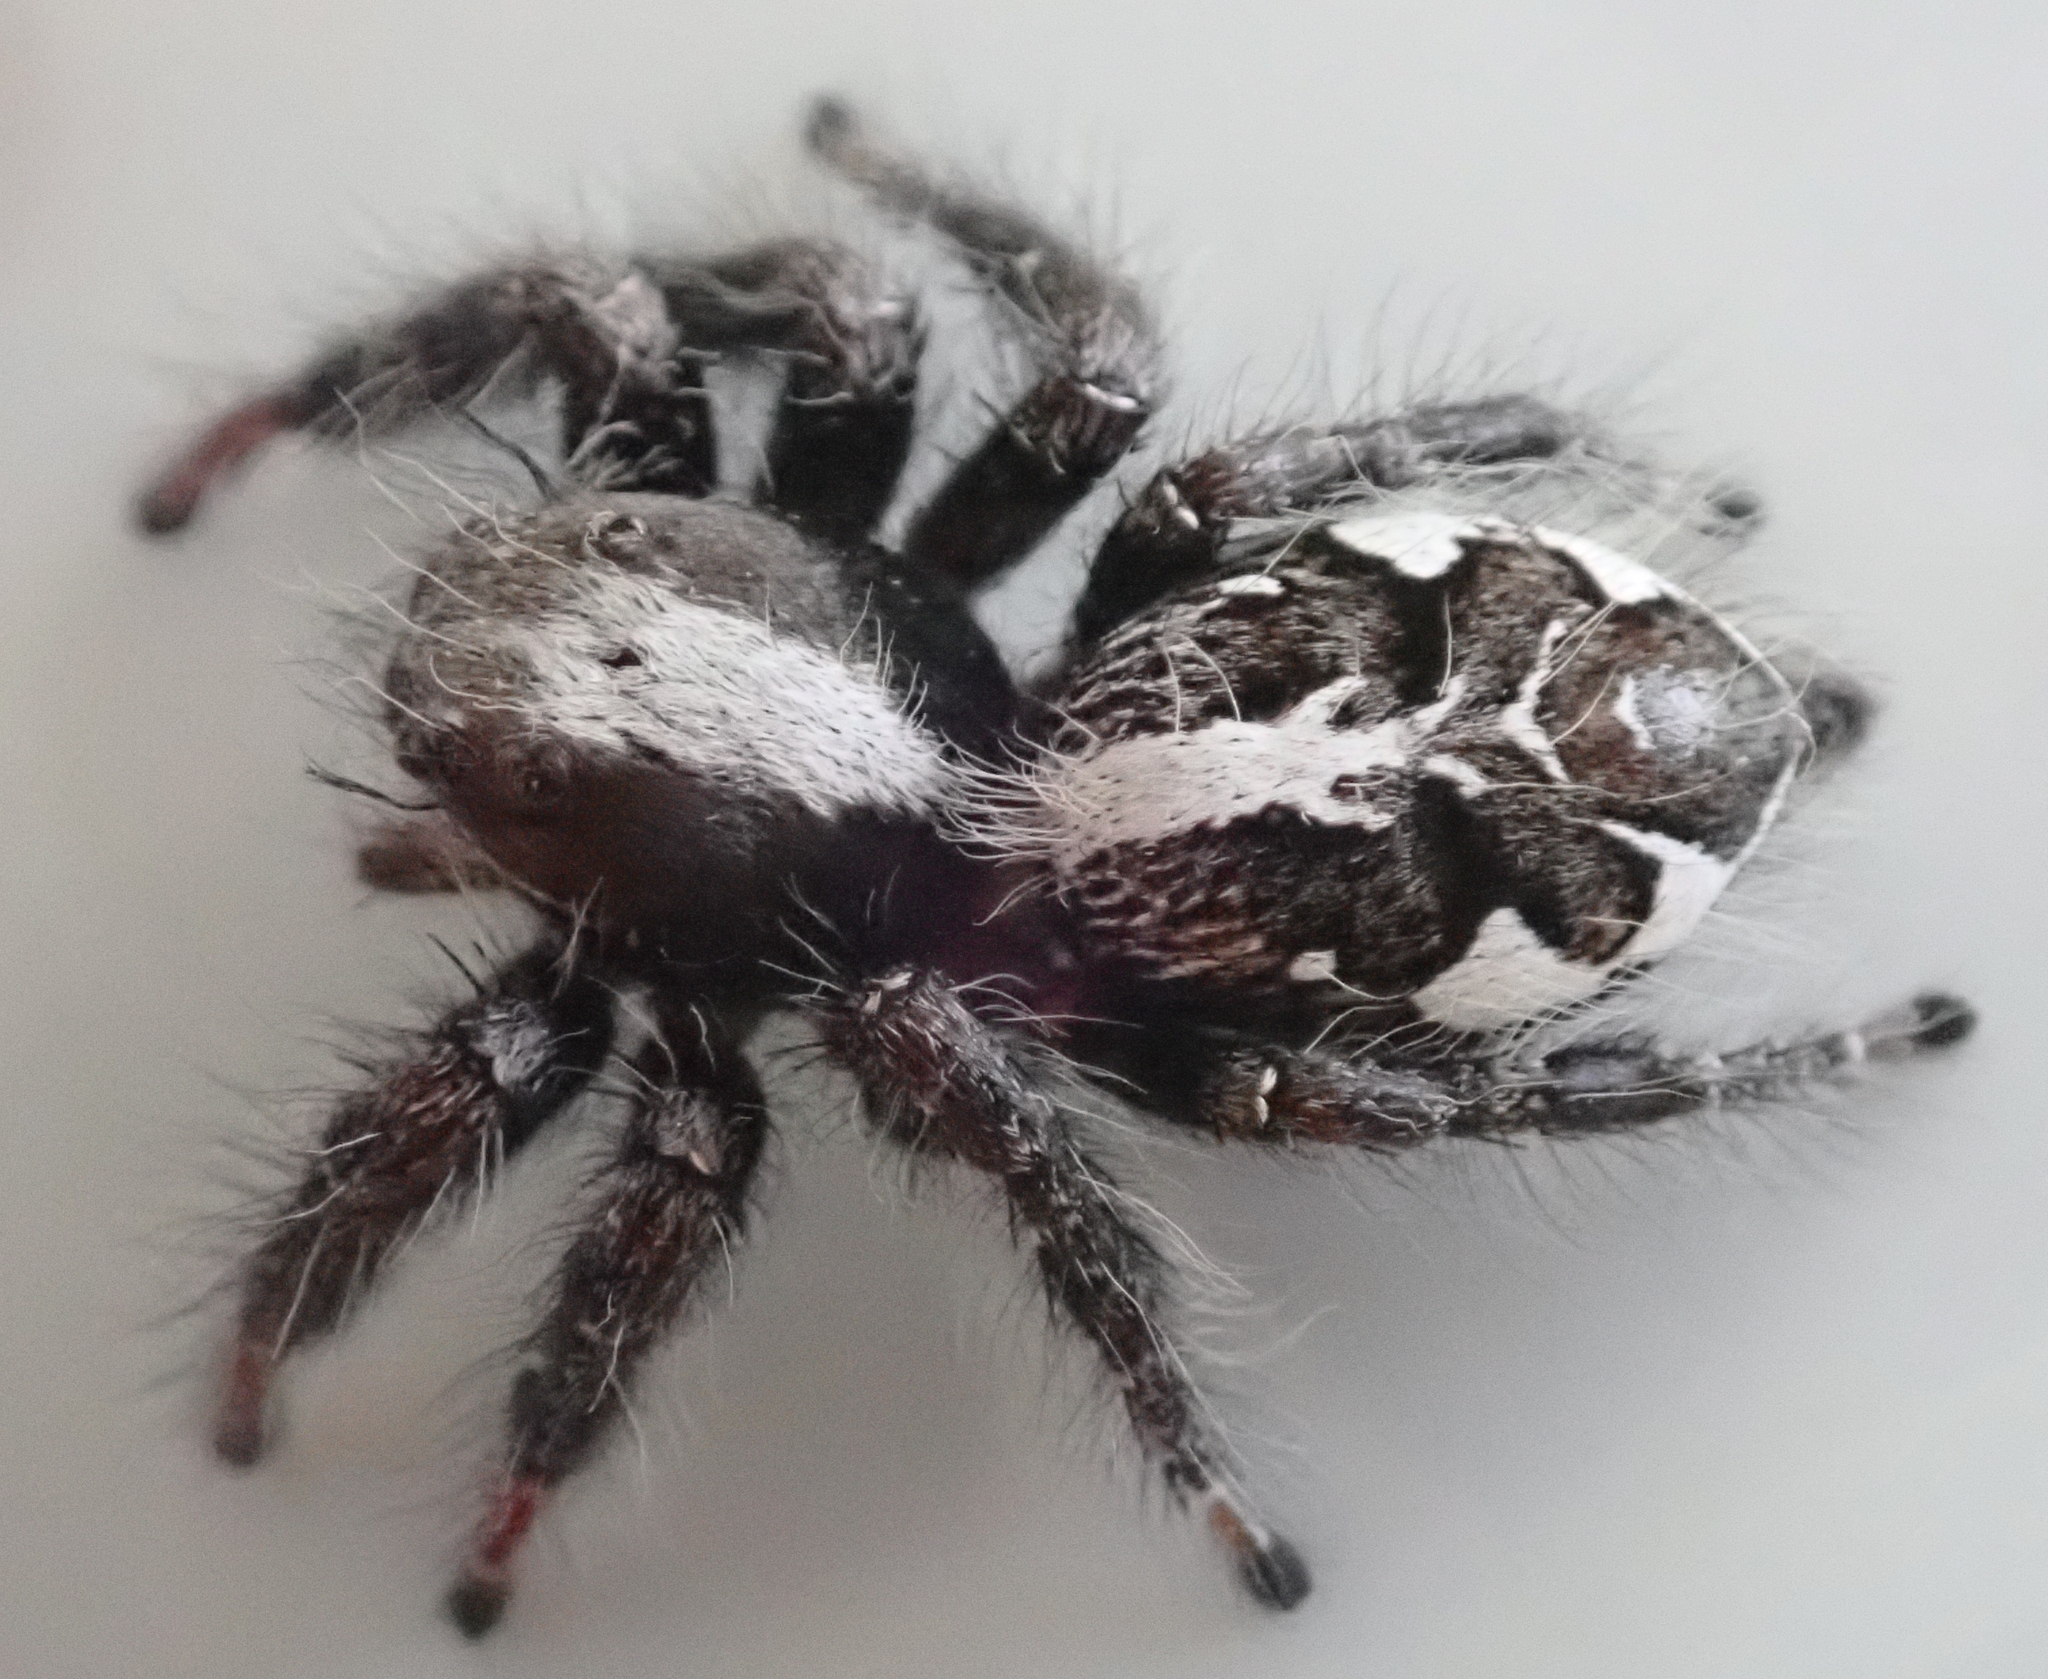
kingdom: Animalia
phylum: Arthropoda
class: Arachnida
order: Araneae
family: Salticidae
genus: Hyllus
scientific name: Hyllus treleaveni
